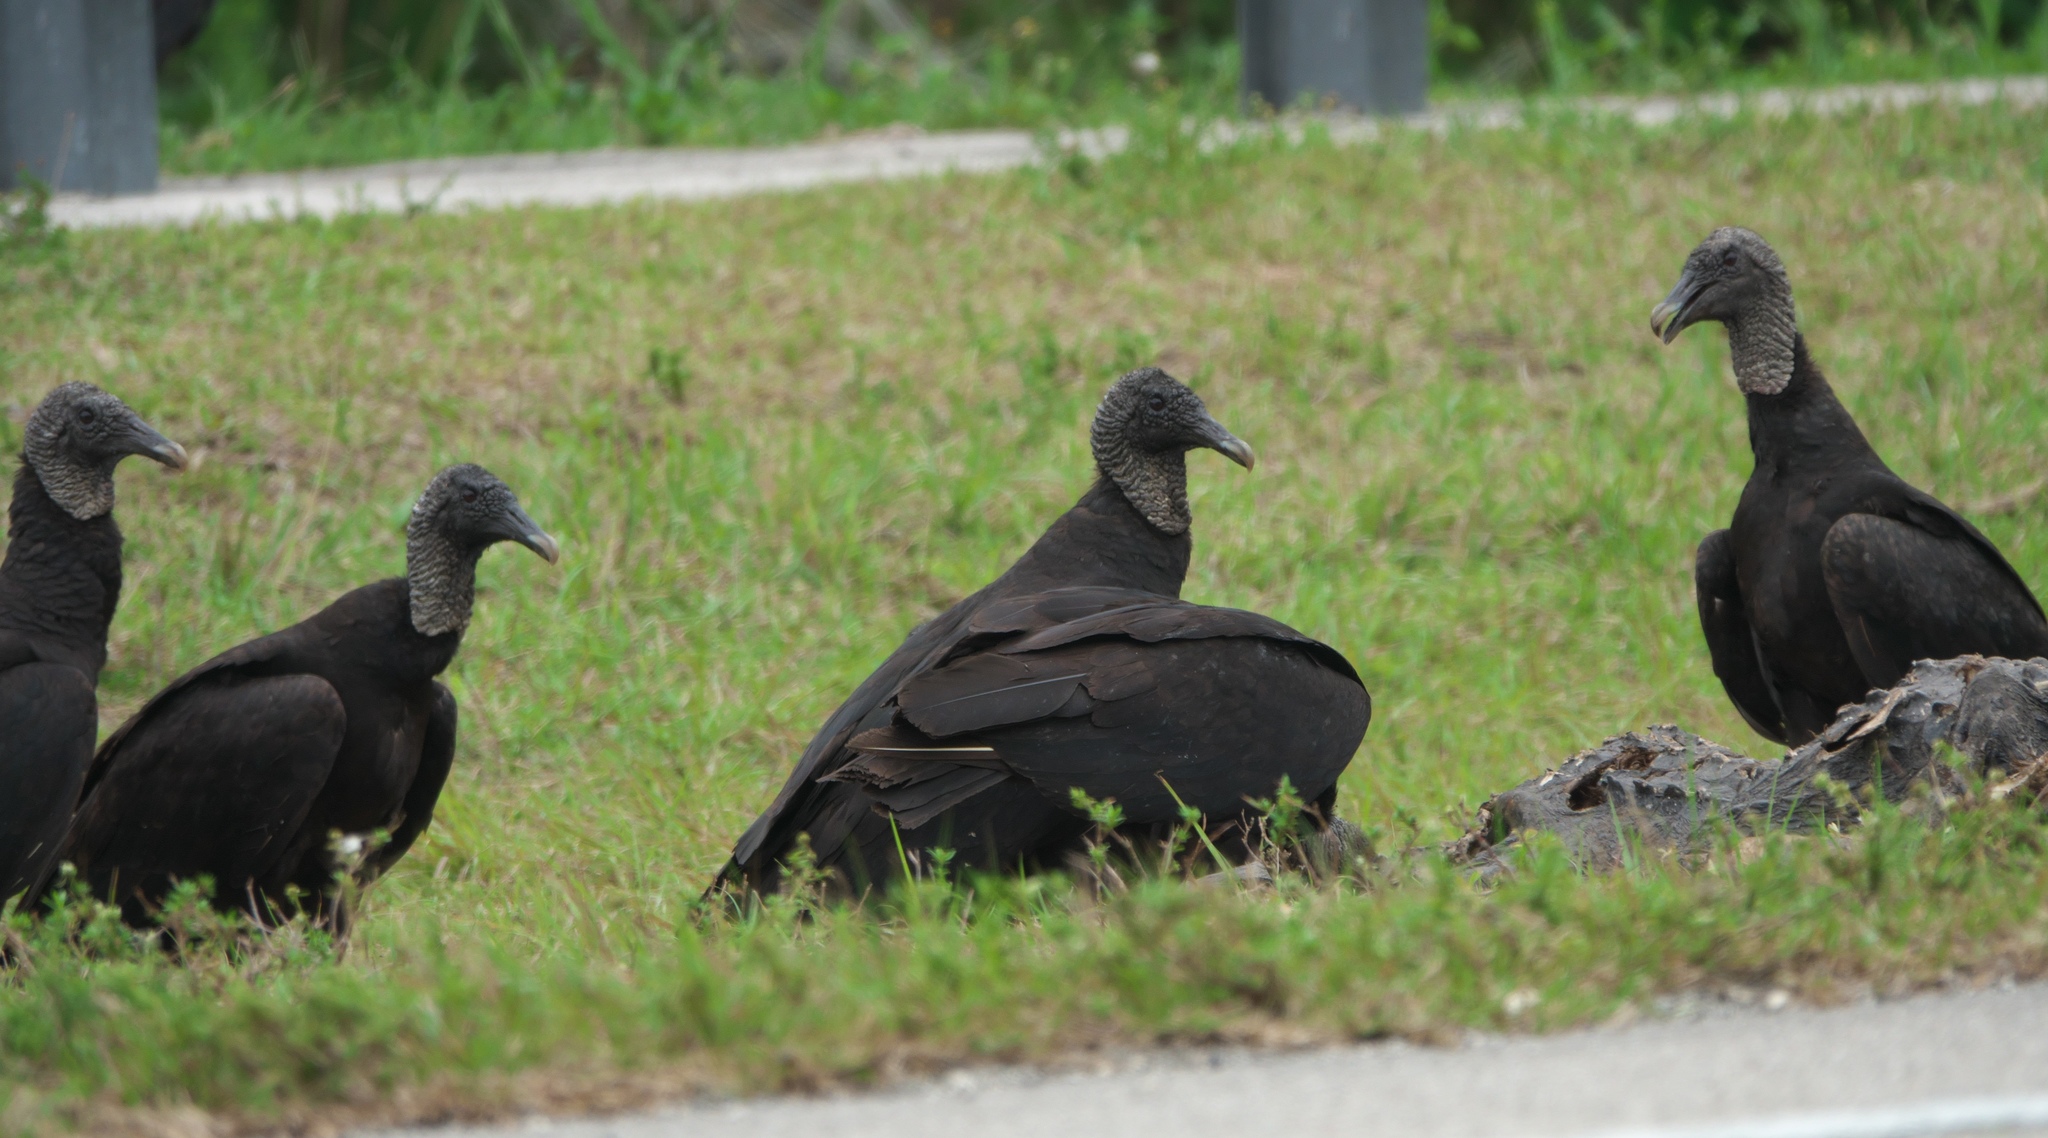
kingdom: Animalia
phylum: Chordata
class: Aves
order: Accipitriformes
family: Cathartidae
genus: Coragyps
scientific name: Coragyps atratus
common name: Black vulture
